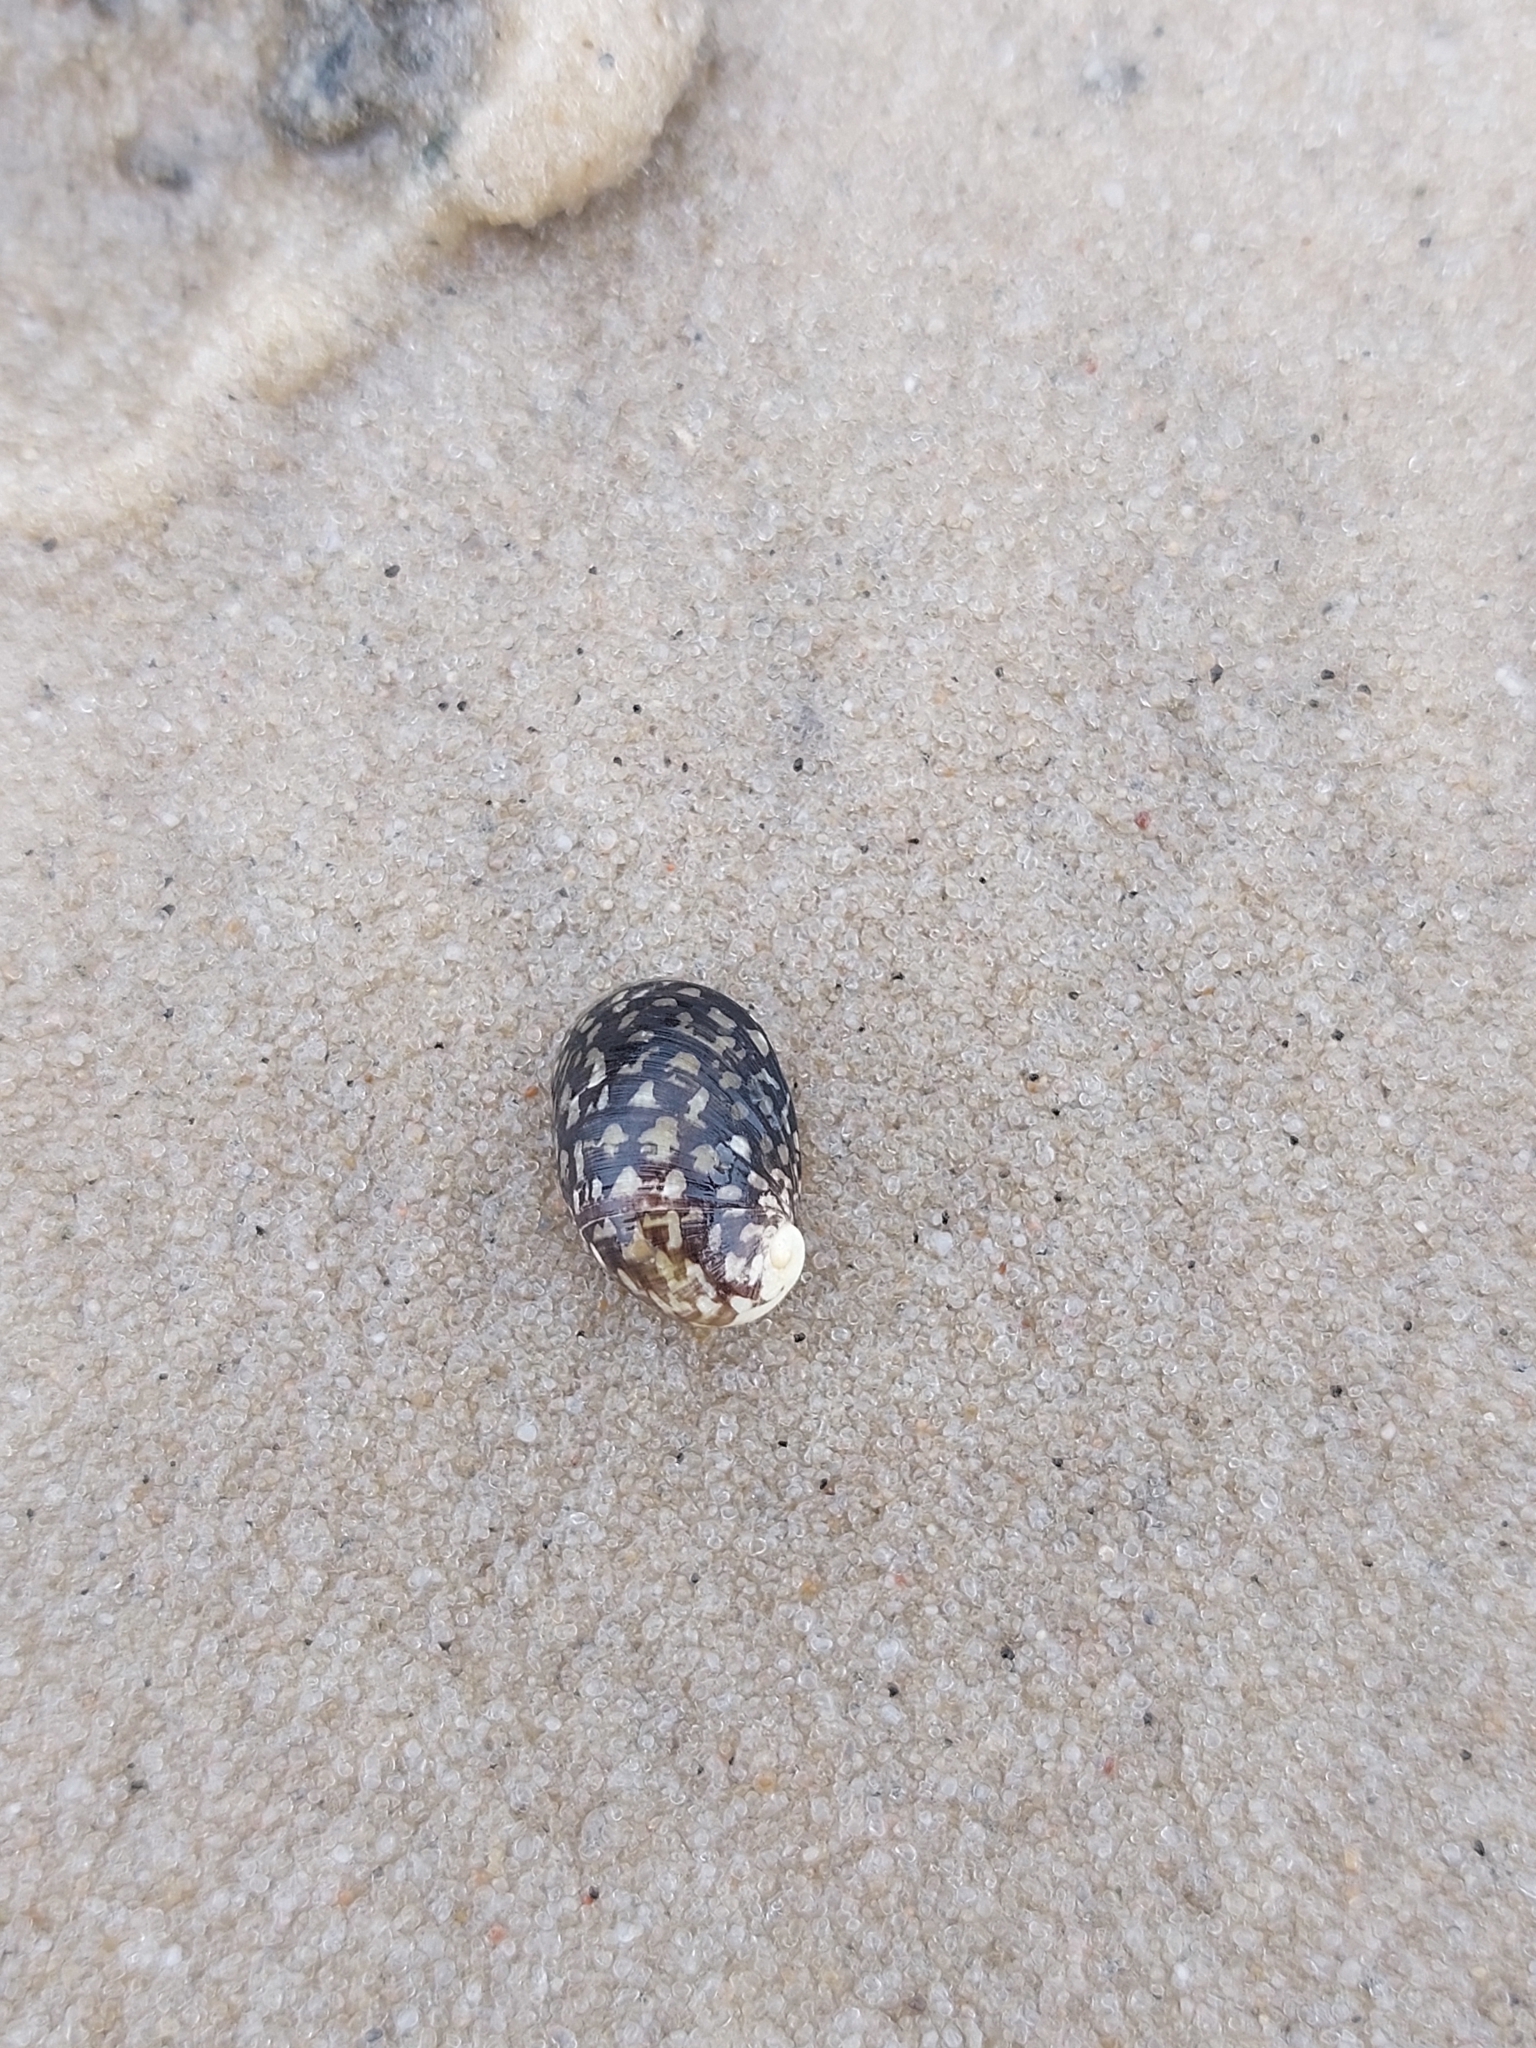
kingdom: Animalia
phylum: Mollusca
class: Gastropoda
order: Cycloneritida
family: Neritidae
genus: Theodoxus
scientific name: Theodoxus fluviatilis
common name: River nerite
